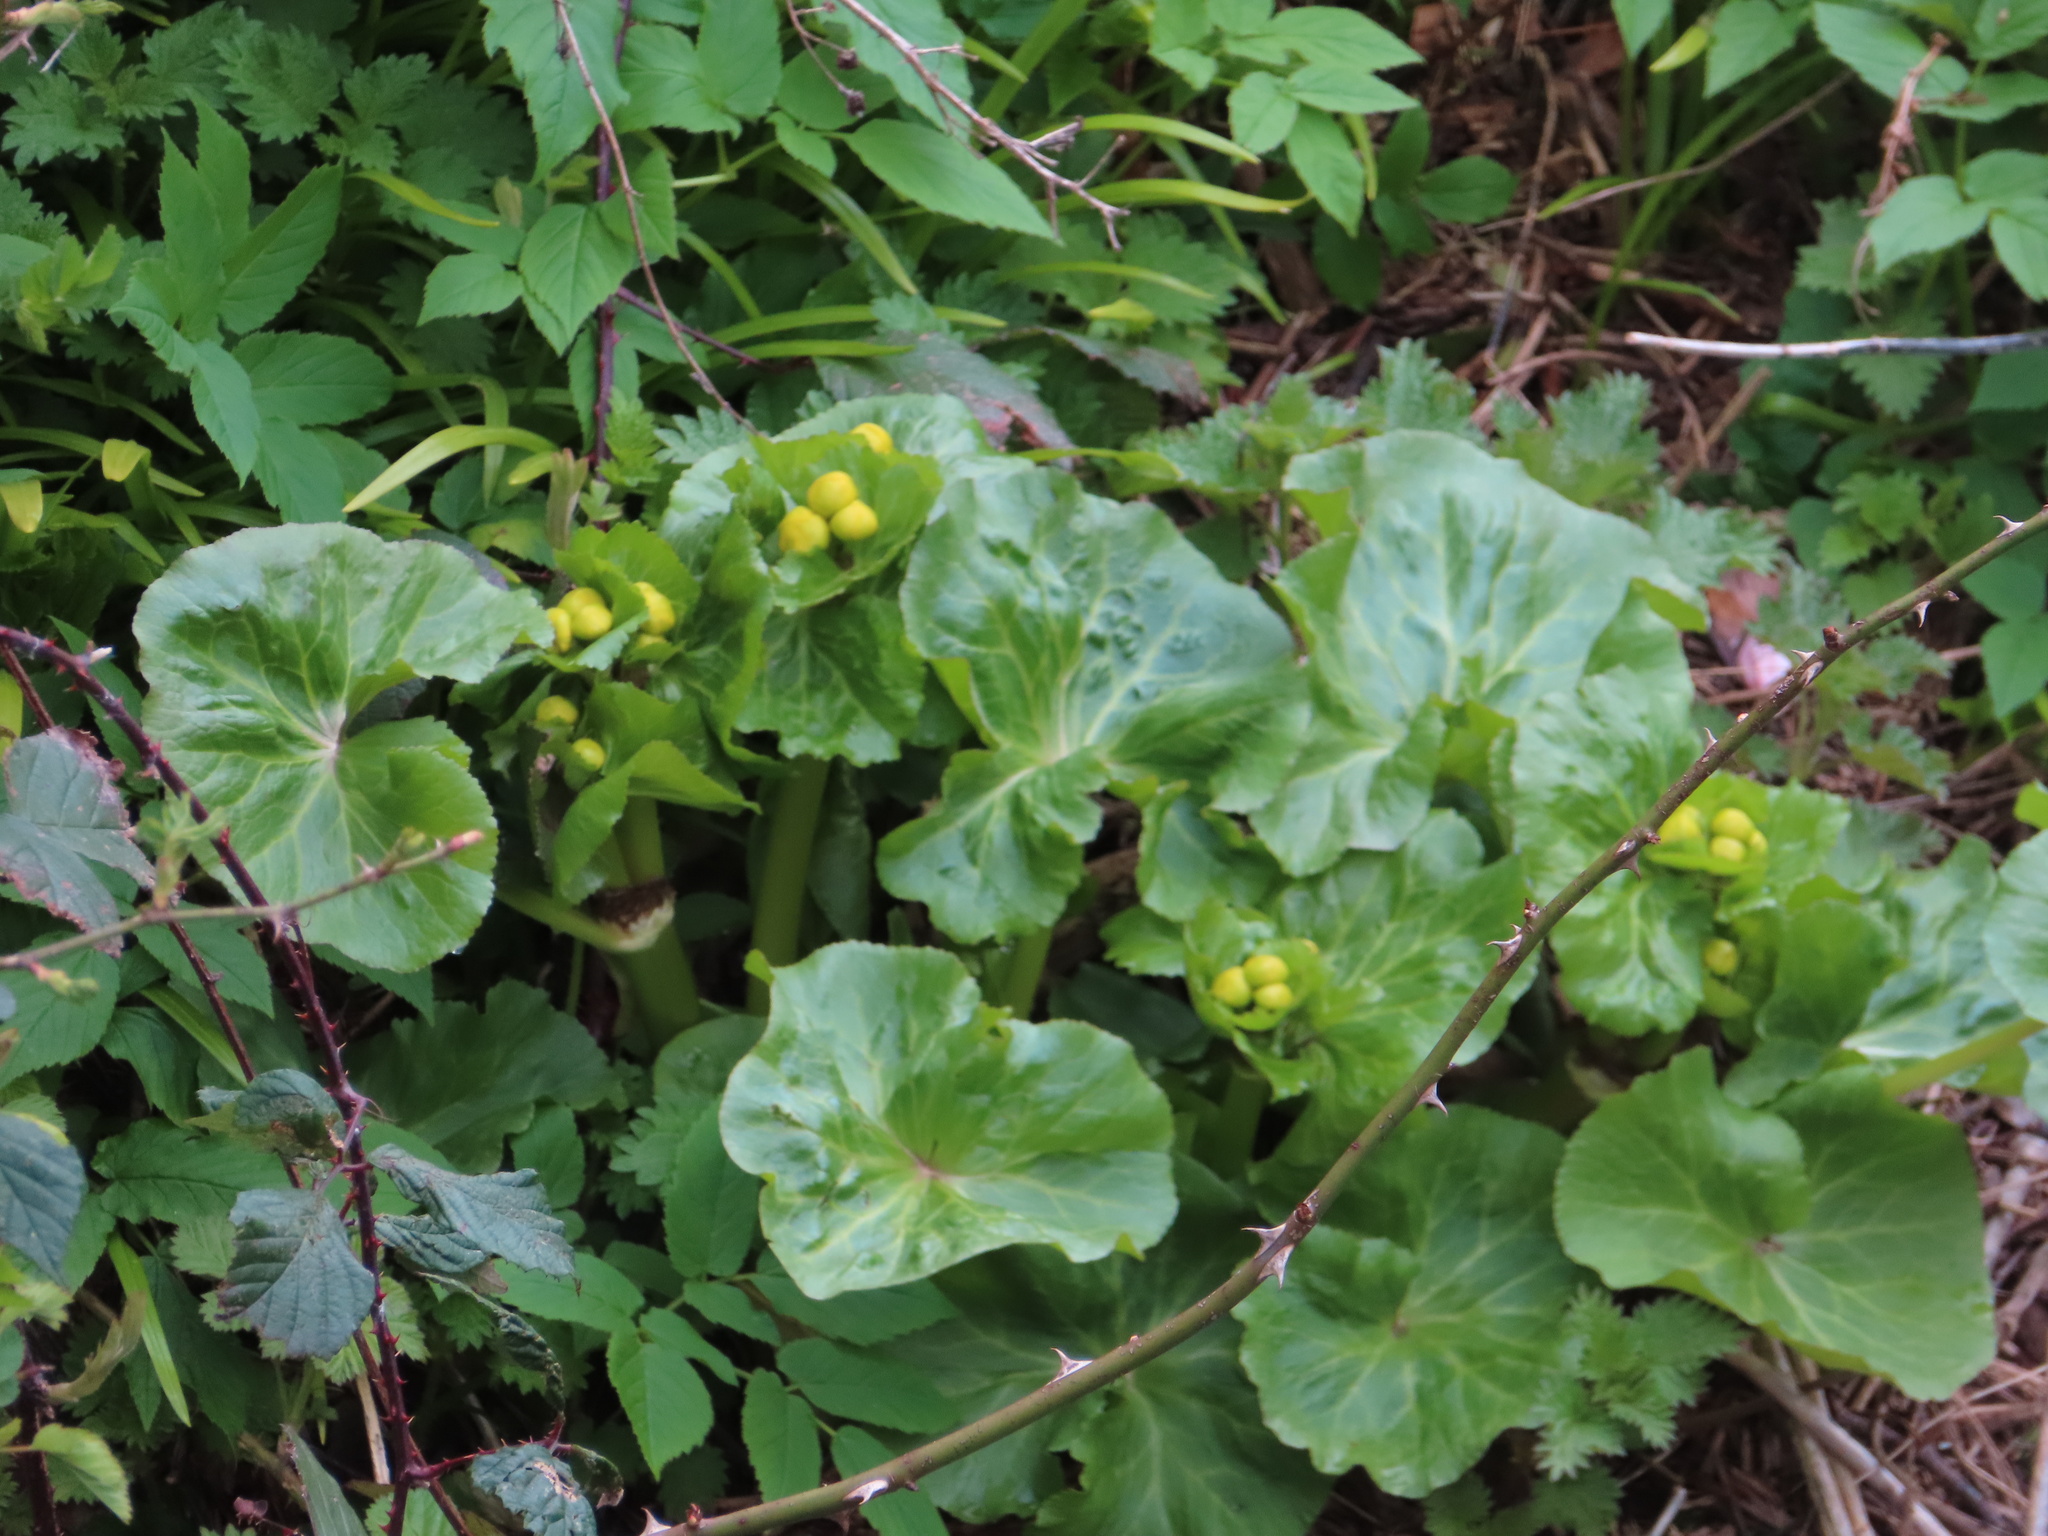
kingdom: Plantae
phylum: Tracheophyta
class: Magnoliopsida
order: Ranunculales
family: Ranunculaceae
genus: Caltha
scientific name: Caltha palustris
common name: Marsh marigold
